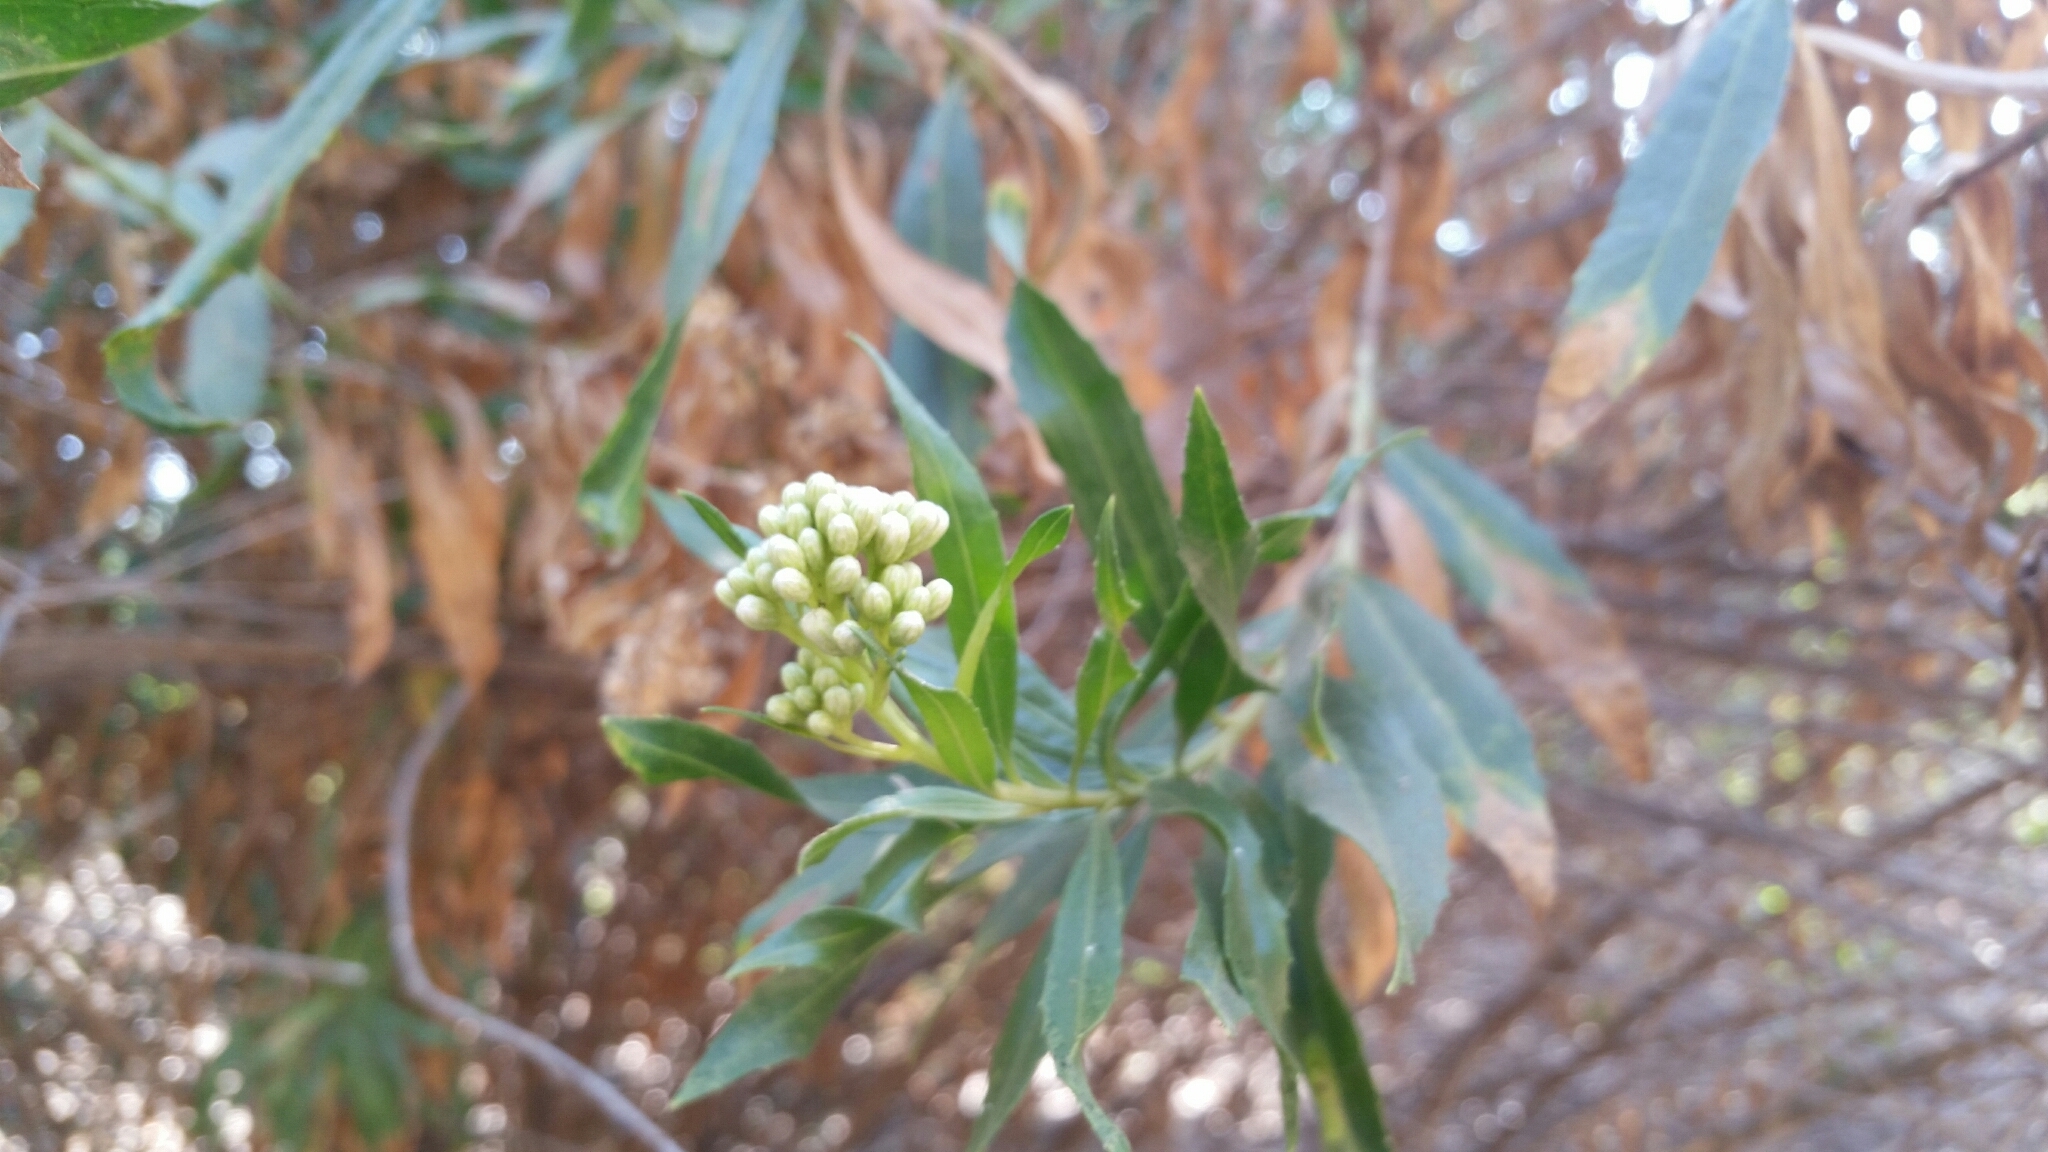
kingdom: Plantae
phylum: Tracheophyta
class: Magnoliopsida
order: Asterales
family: Asteraceae
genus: Baccharis
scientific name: Baccharis salicifolia
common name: Sticky baccharis
